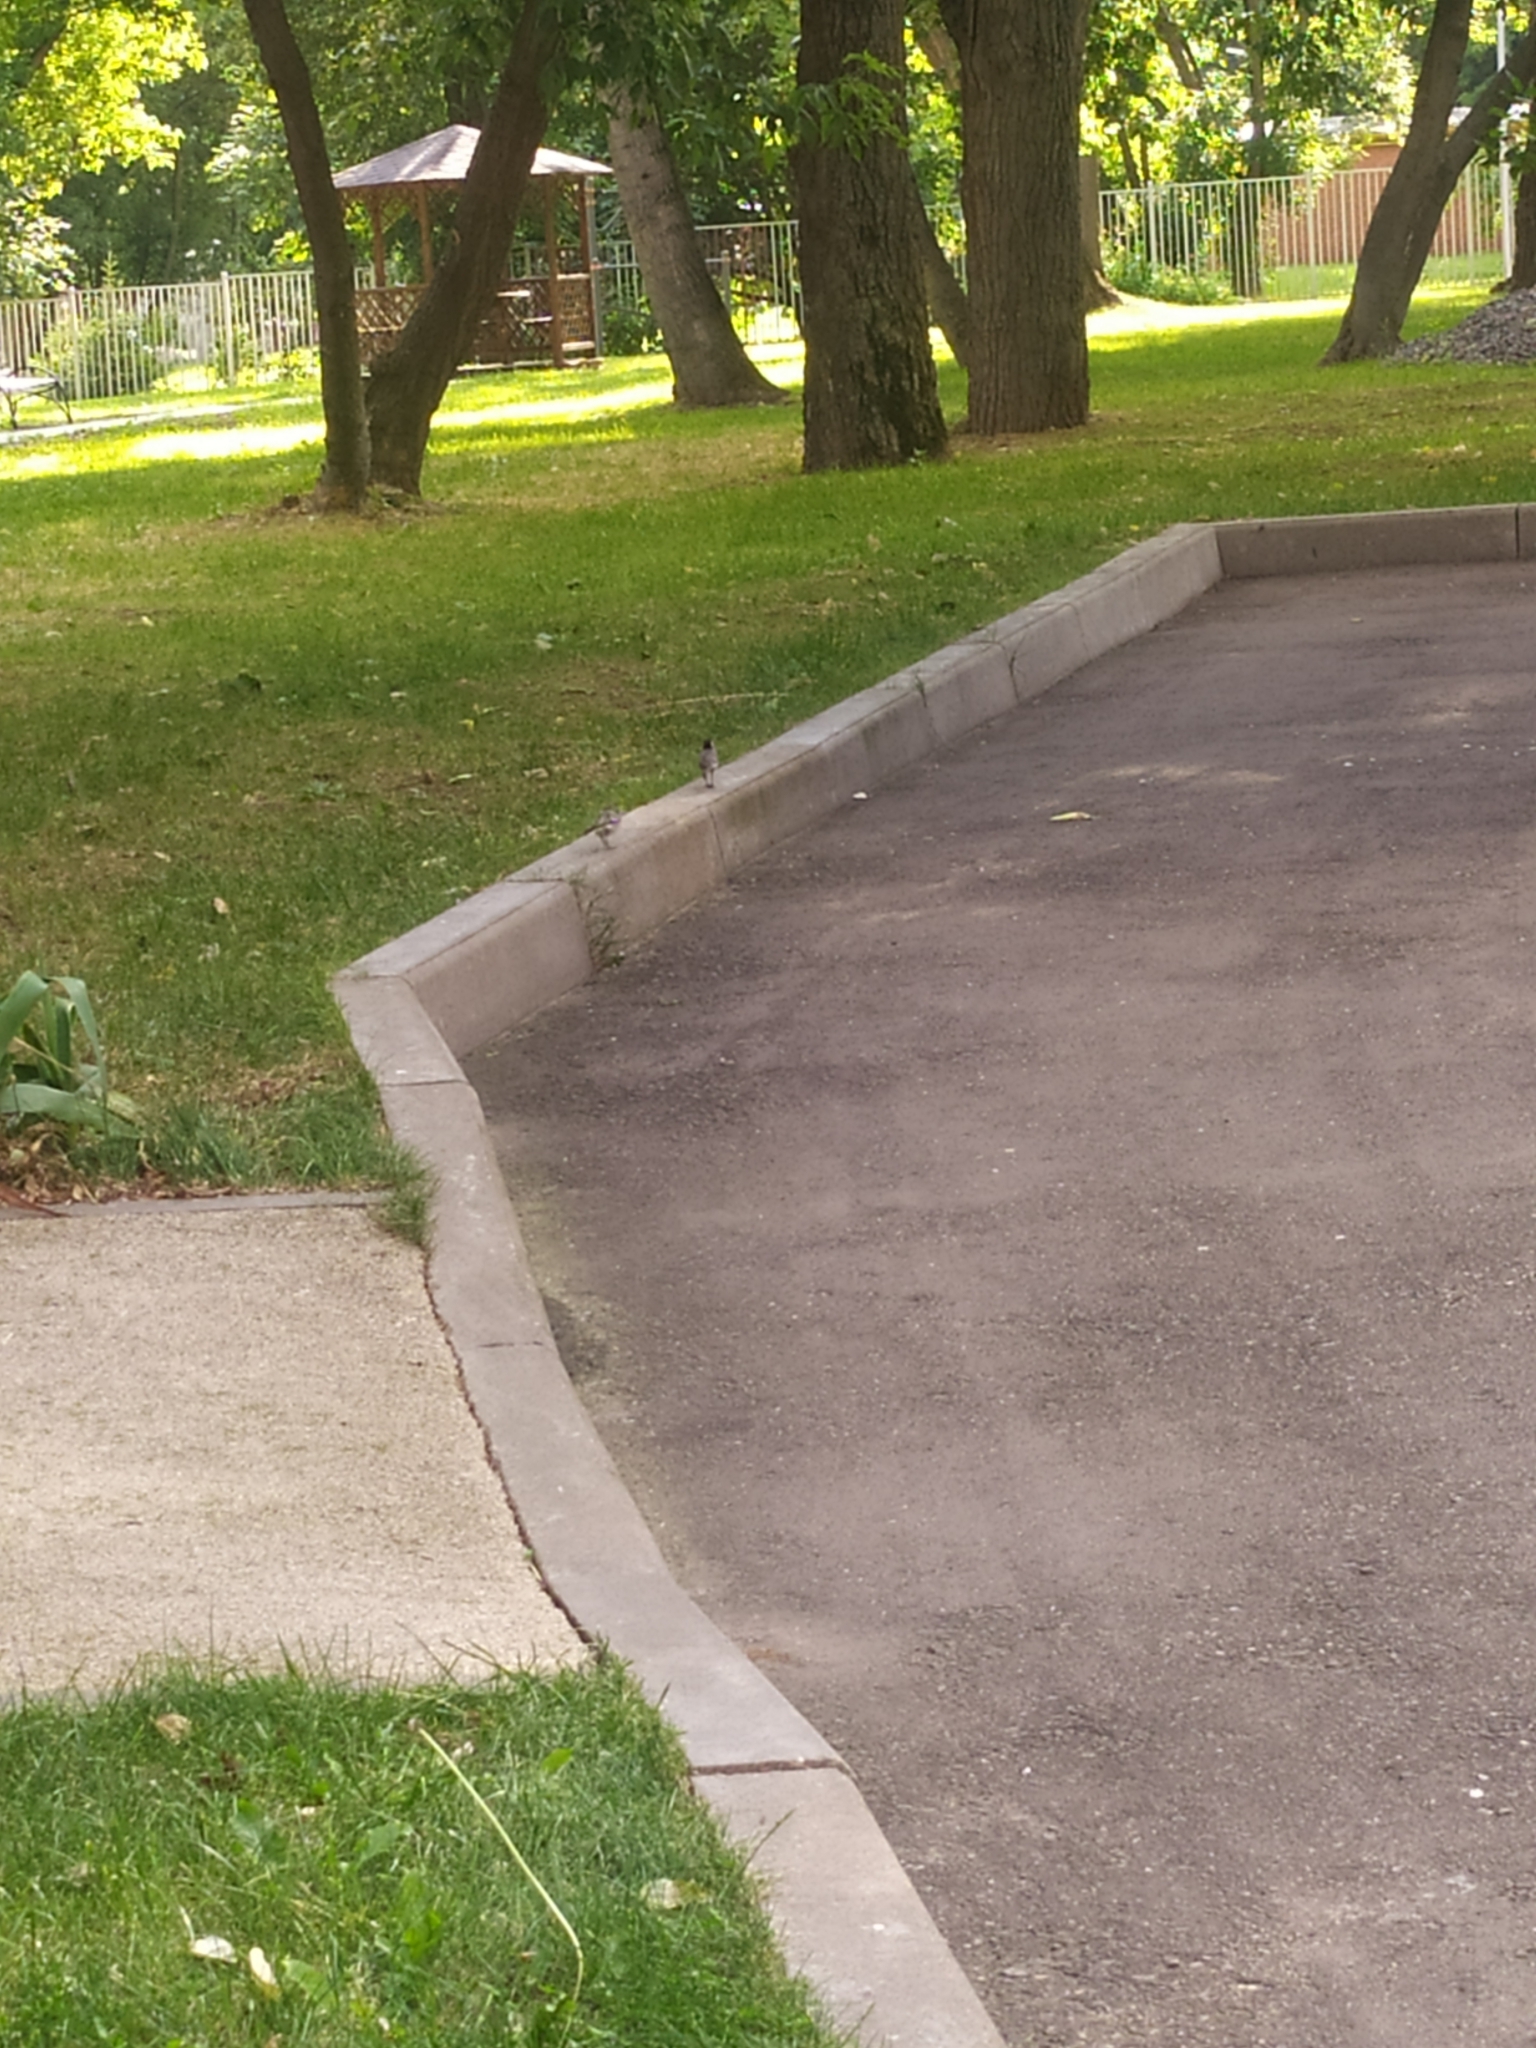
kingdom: Animalia
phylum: Chordata
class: Aves
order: Passeriformes
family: Motacillidae
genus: Motacilla
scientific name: Motacilla alba
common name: White wagtail
